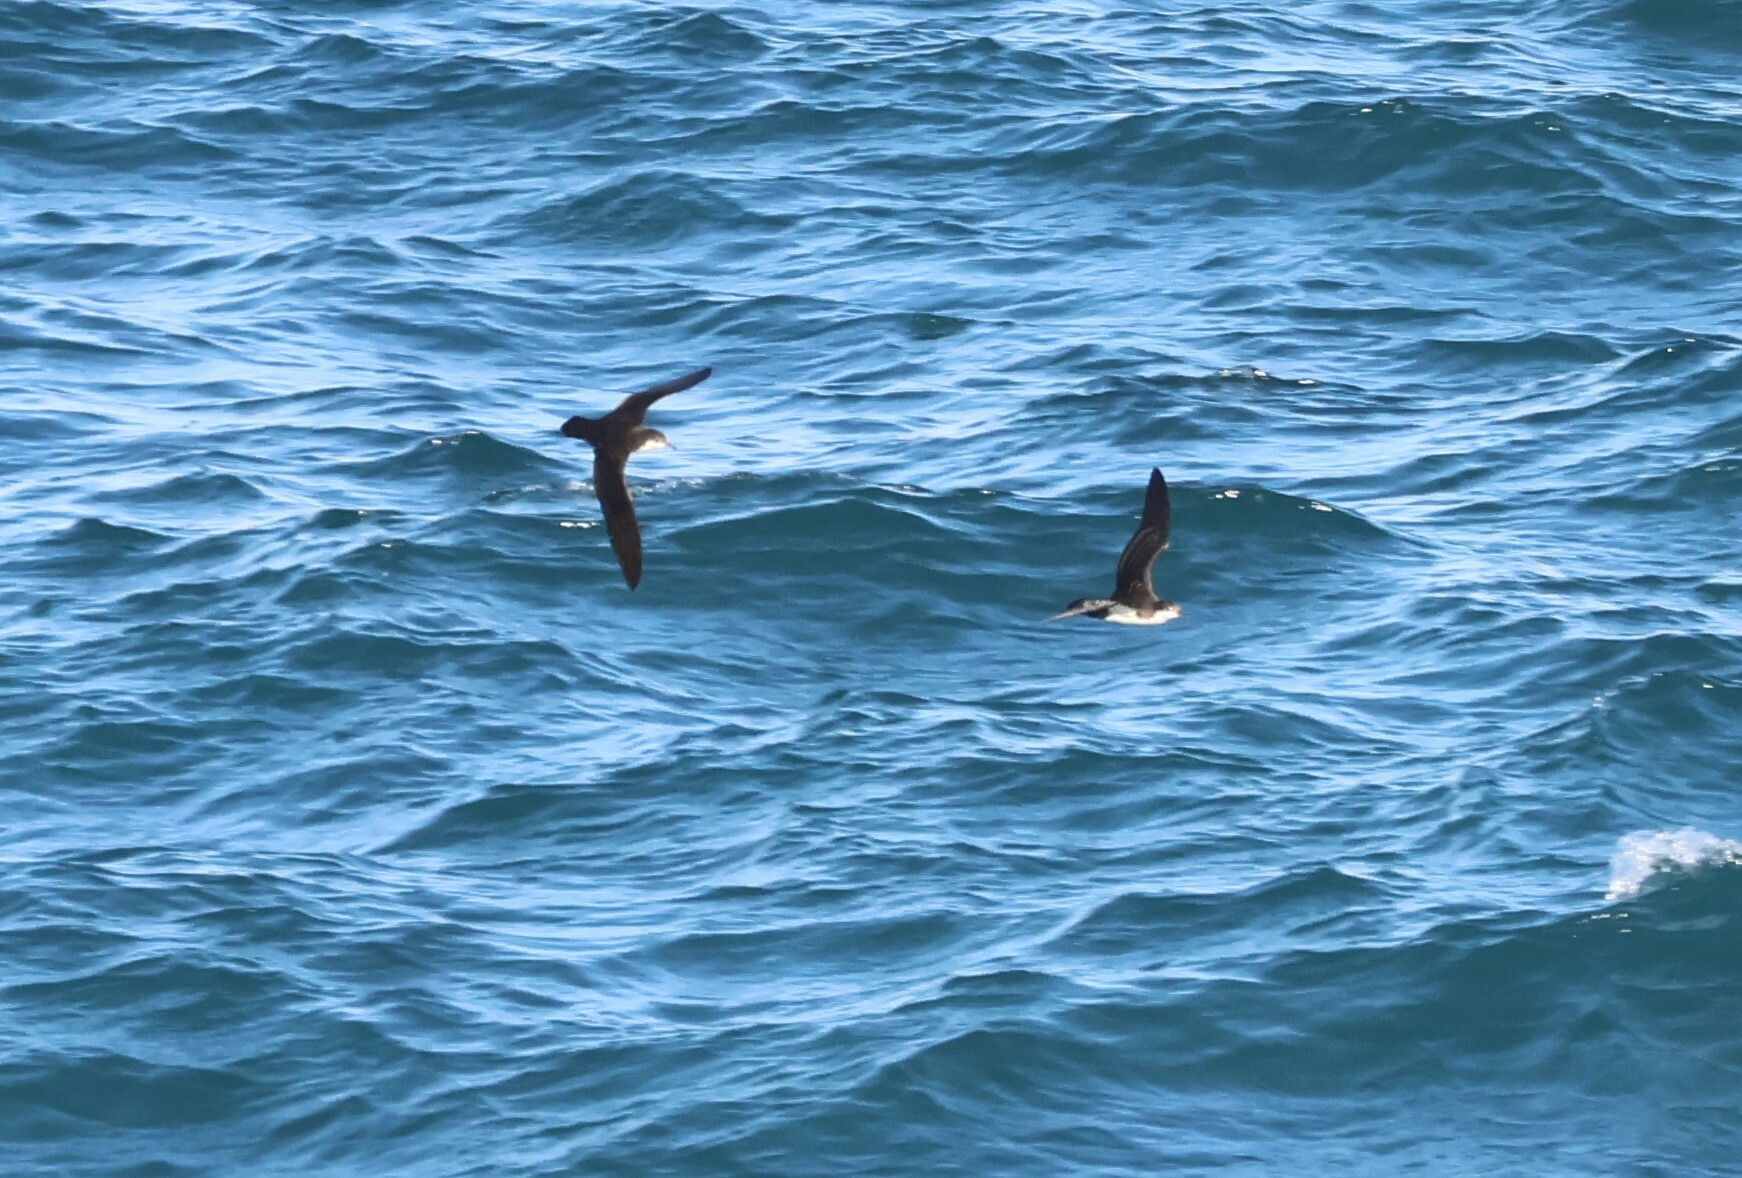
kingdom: Animalia
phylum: Chordata
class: Aves
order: Procellariiformes
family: Procellariidae
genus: Puffinus
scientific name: Puffinus subalaris
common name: Galapagos shearwater
